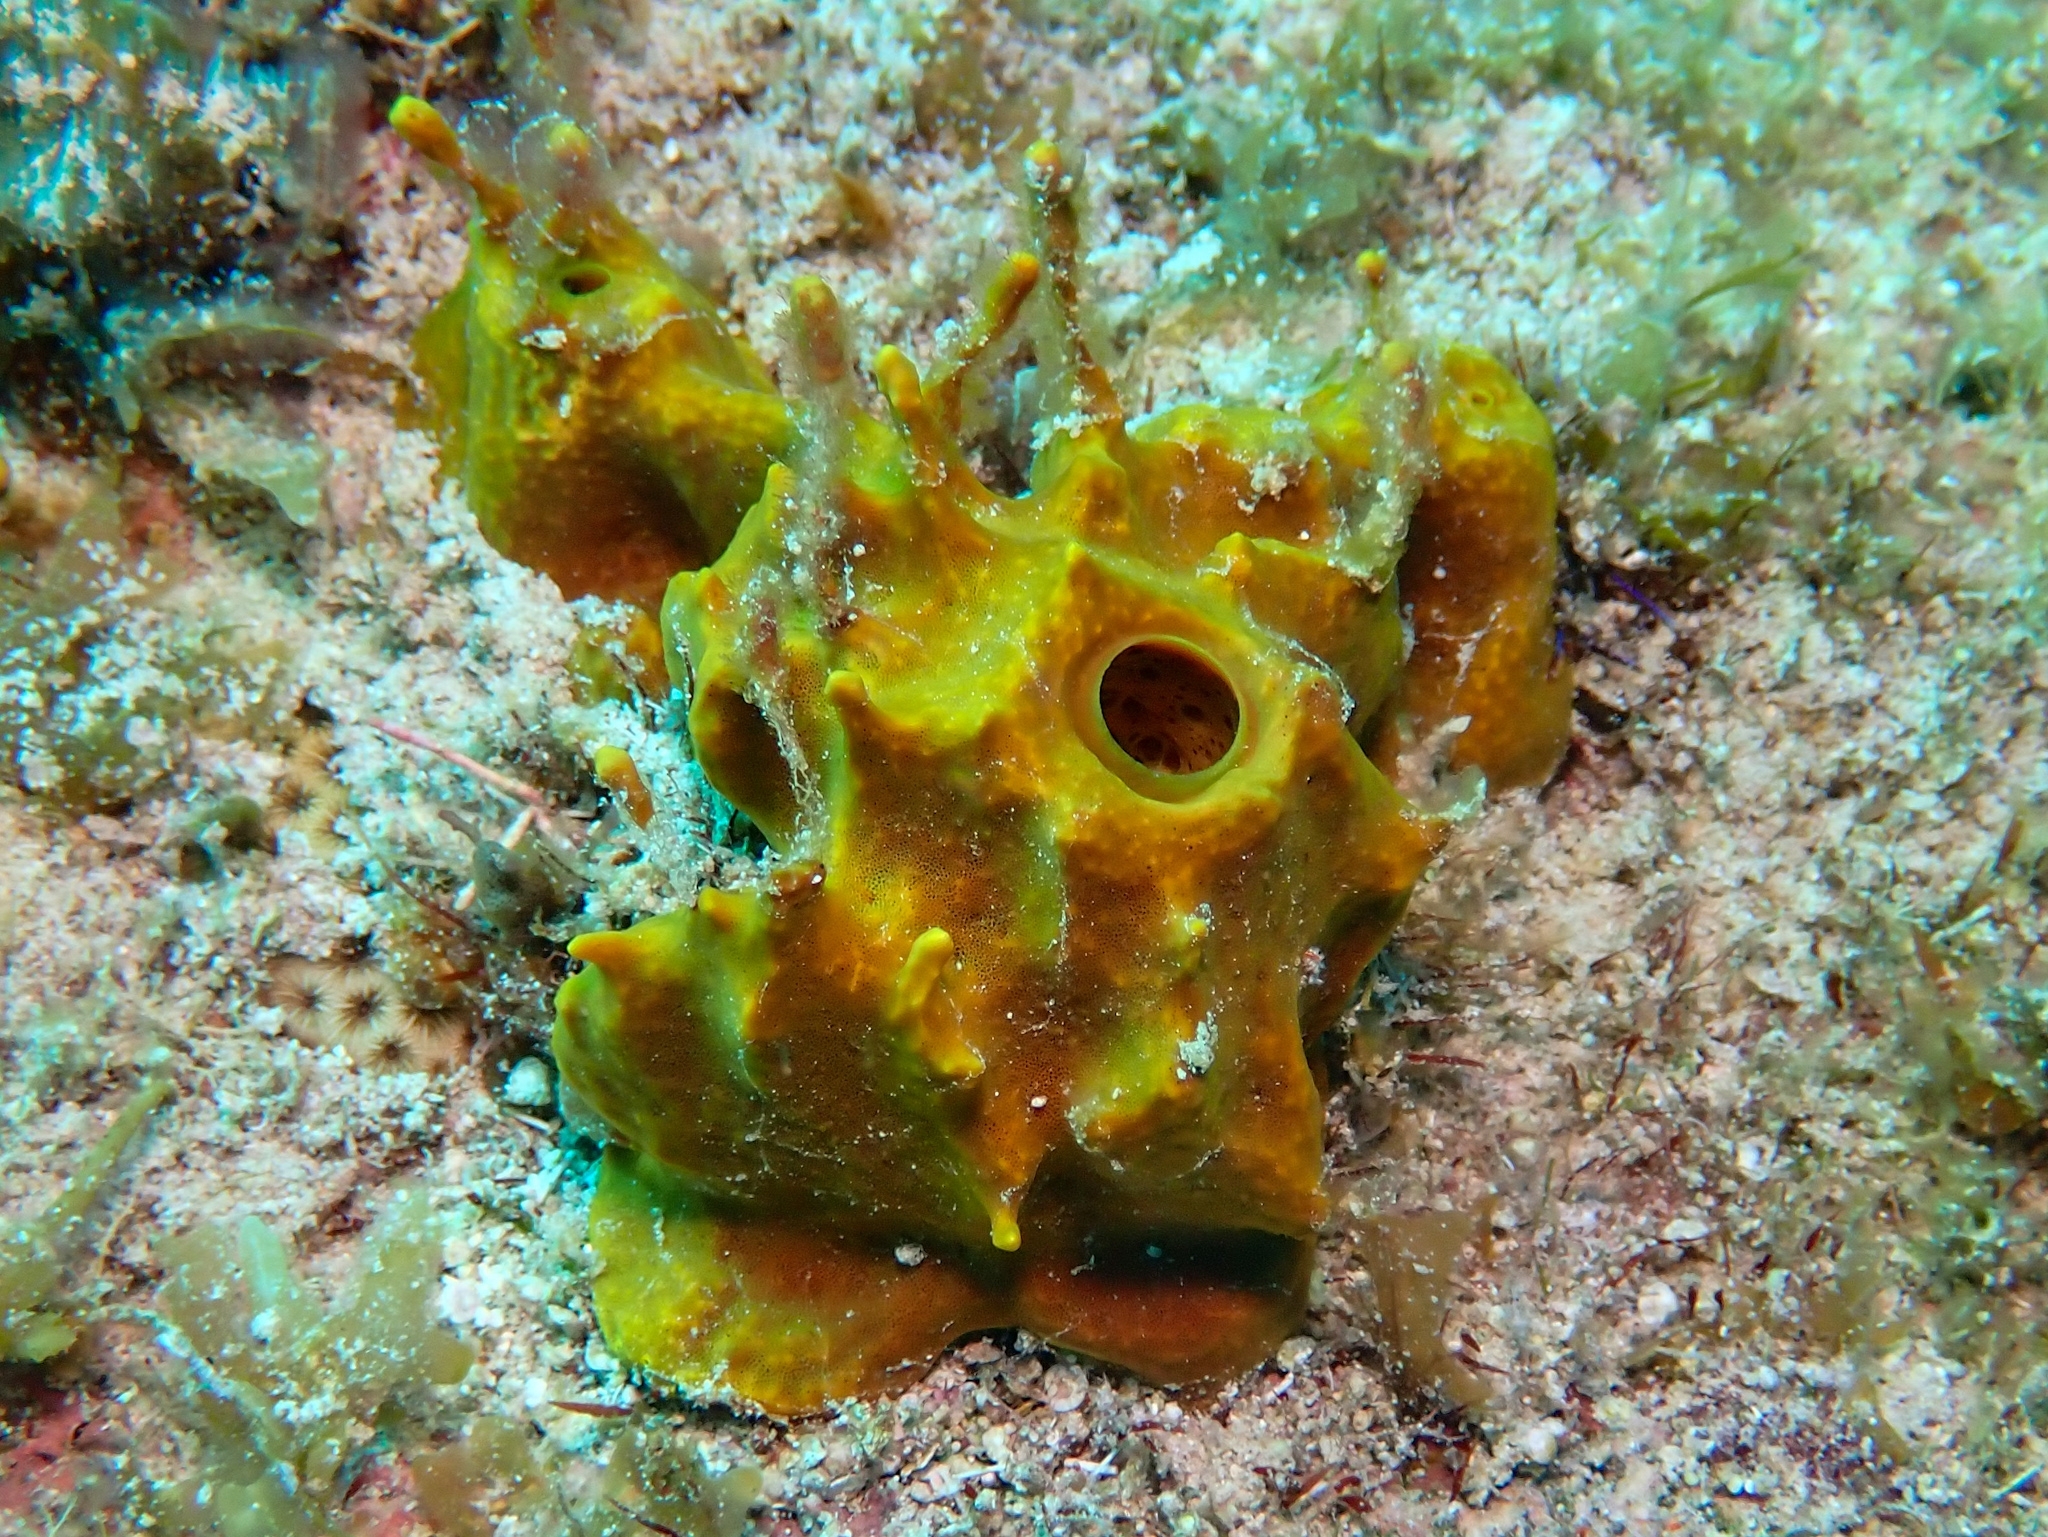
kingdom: Animalia
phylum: Porifera
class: Demospongiae
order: Verongiida
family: Aplysinidae
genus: Aplysina
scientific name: Aplysina insularis
